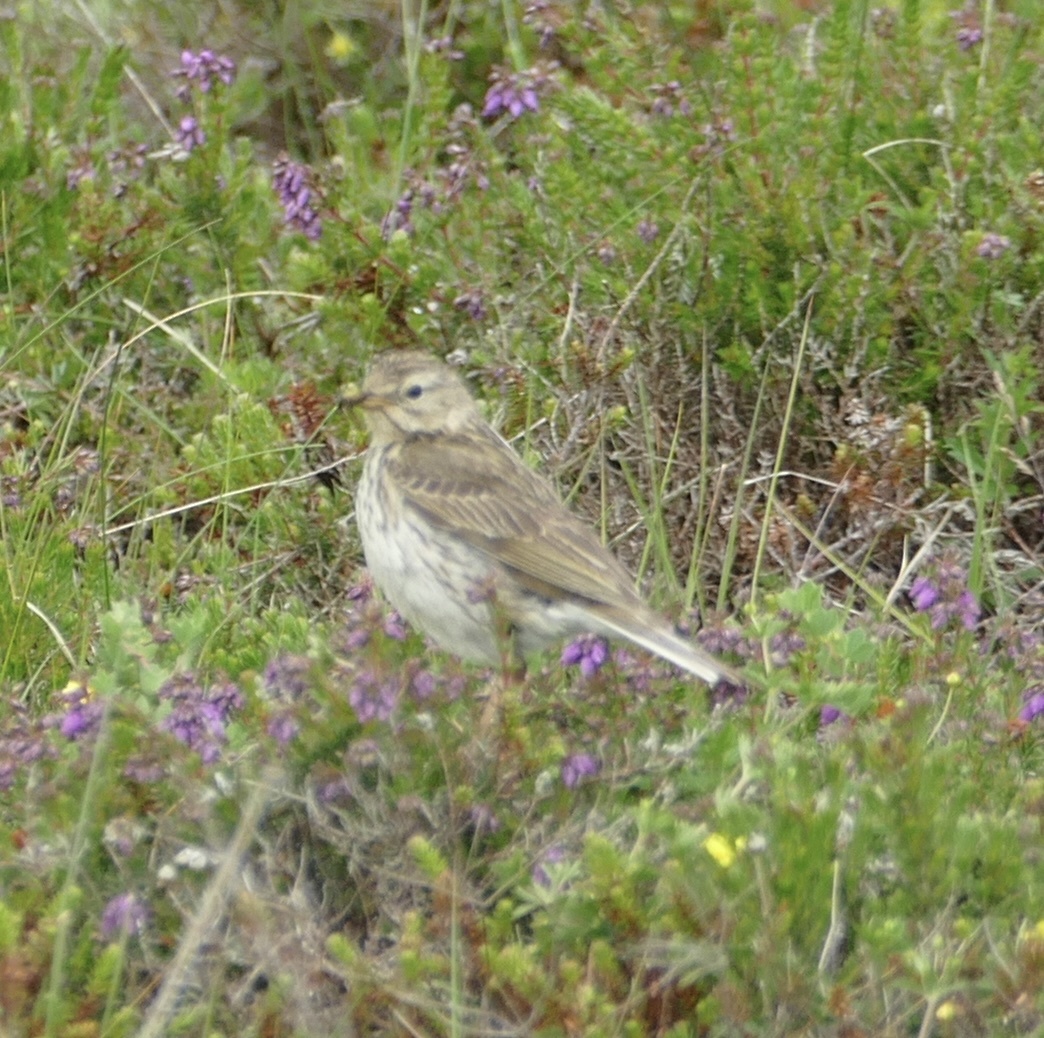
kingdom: Animalia
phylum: Chordata
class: Aves
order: Passeriformes
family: Motacillidae
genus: Anthus
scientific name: Anthus pratensis
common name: Meadow pipit
